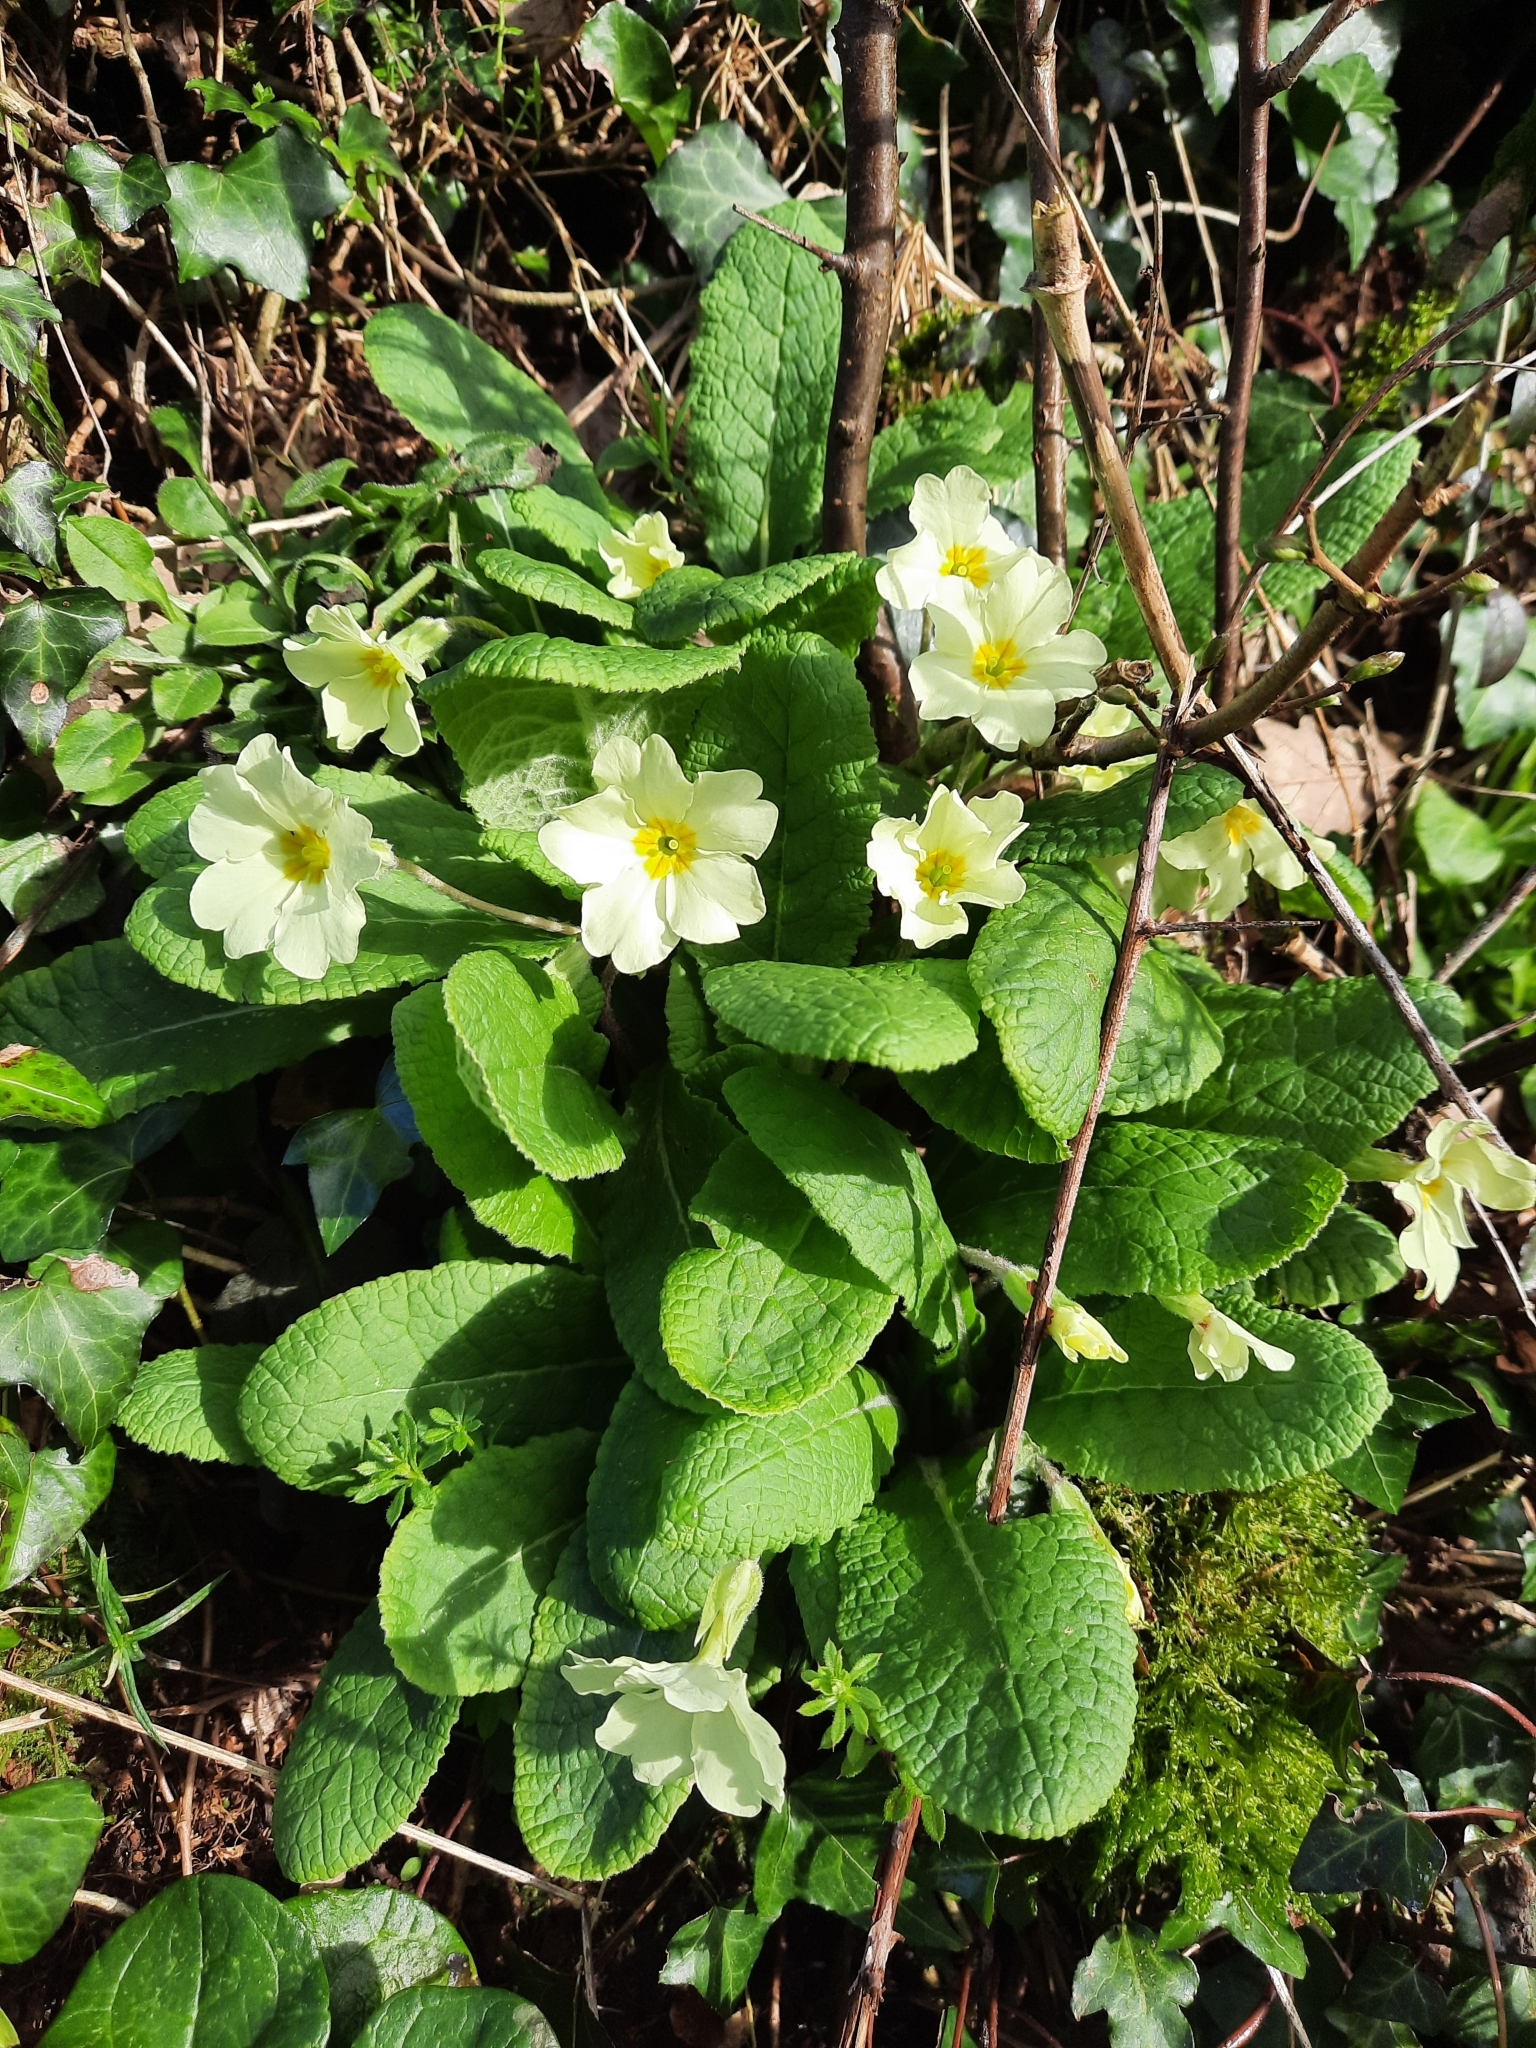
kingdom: Plantae
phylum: Tracheophyta
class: Magnoliopsida
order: Ericales
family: Primulaceae
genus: Primula
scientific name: Primula vulgaris
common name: Primrose
